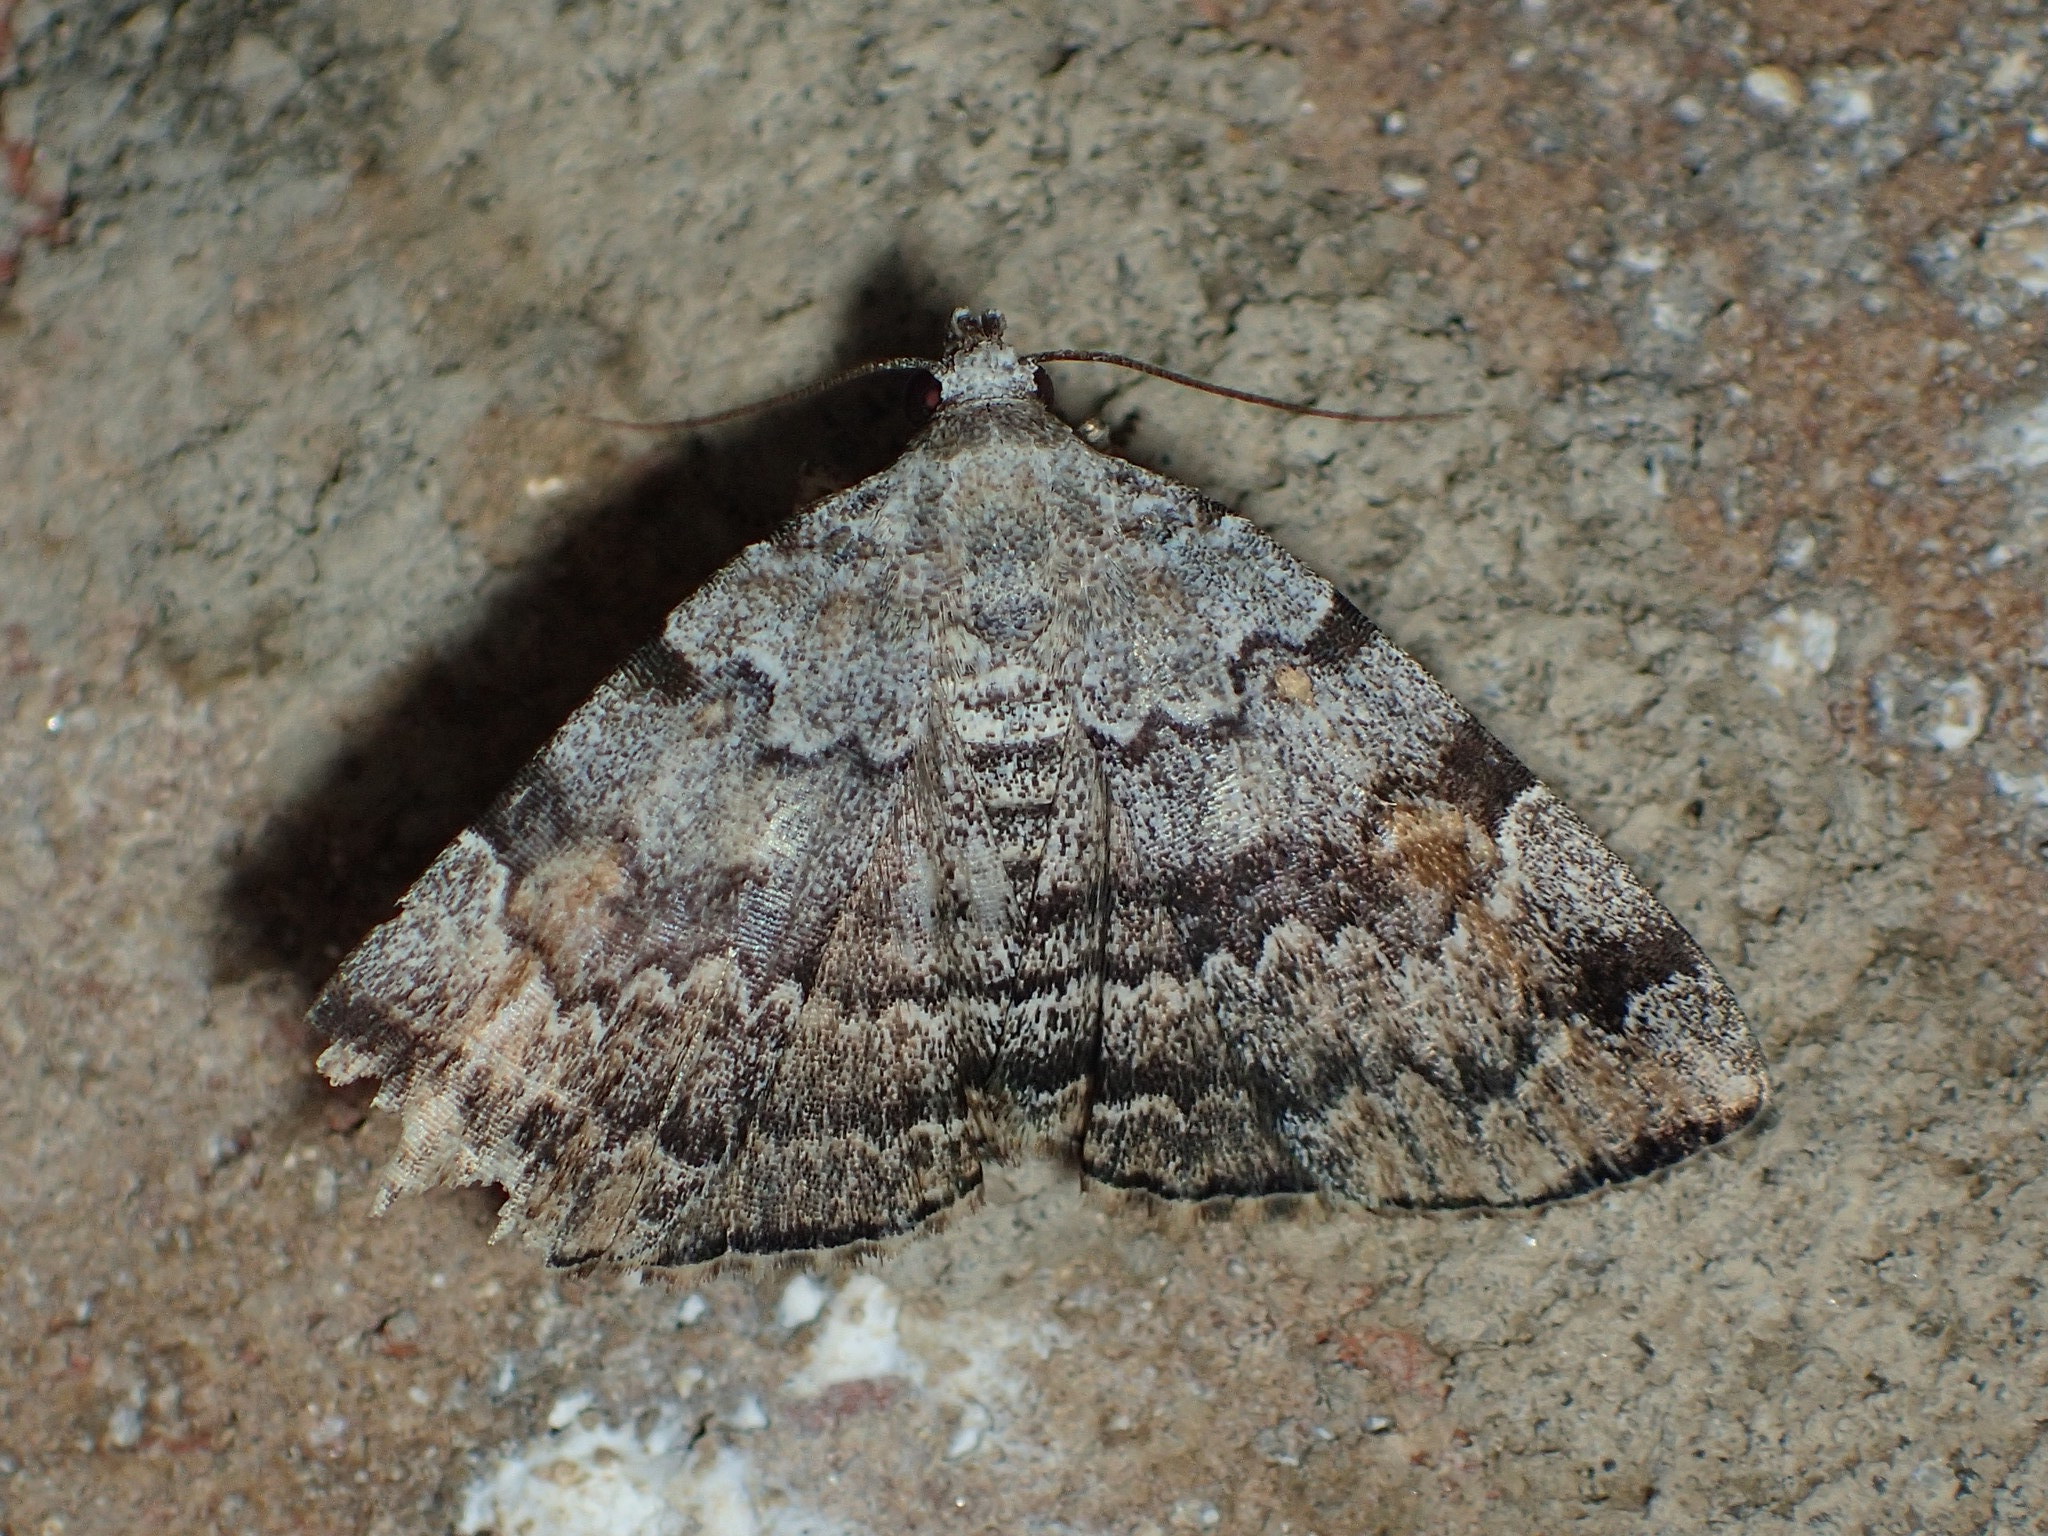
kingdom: Animalia
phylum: Arthropoda
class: Insecta
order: Lepidoptera
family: Erebidae
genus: Idia
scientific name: Idia americalis
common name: American idia moth
